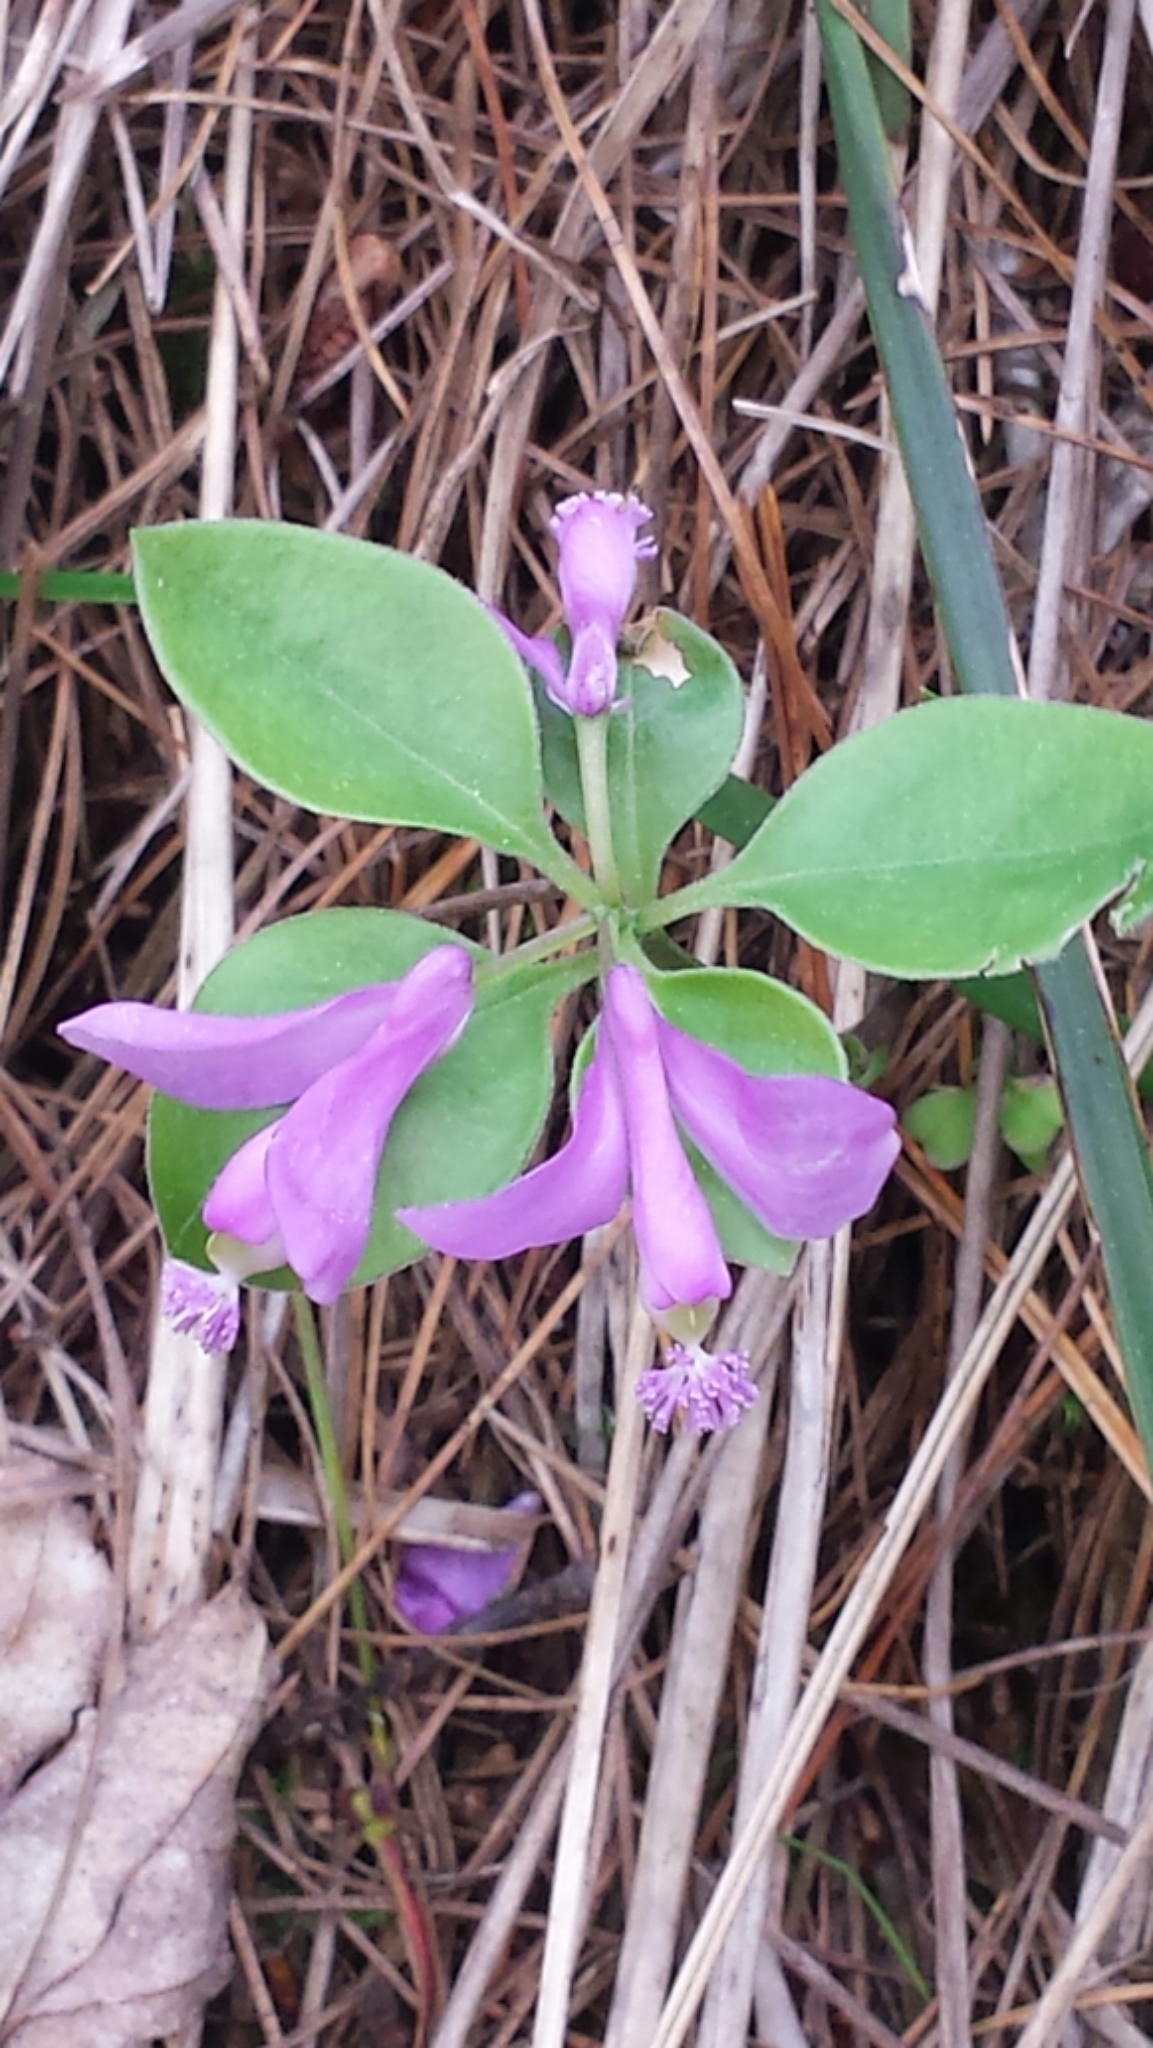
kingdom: Plantae
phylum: Tracheophyta
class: Magnoliopsida
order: Fabales
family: Polygalaceae
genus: Polygaloides
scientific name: Polygaloides paucifolia
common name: Bird-on-the-wing
